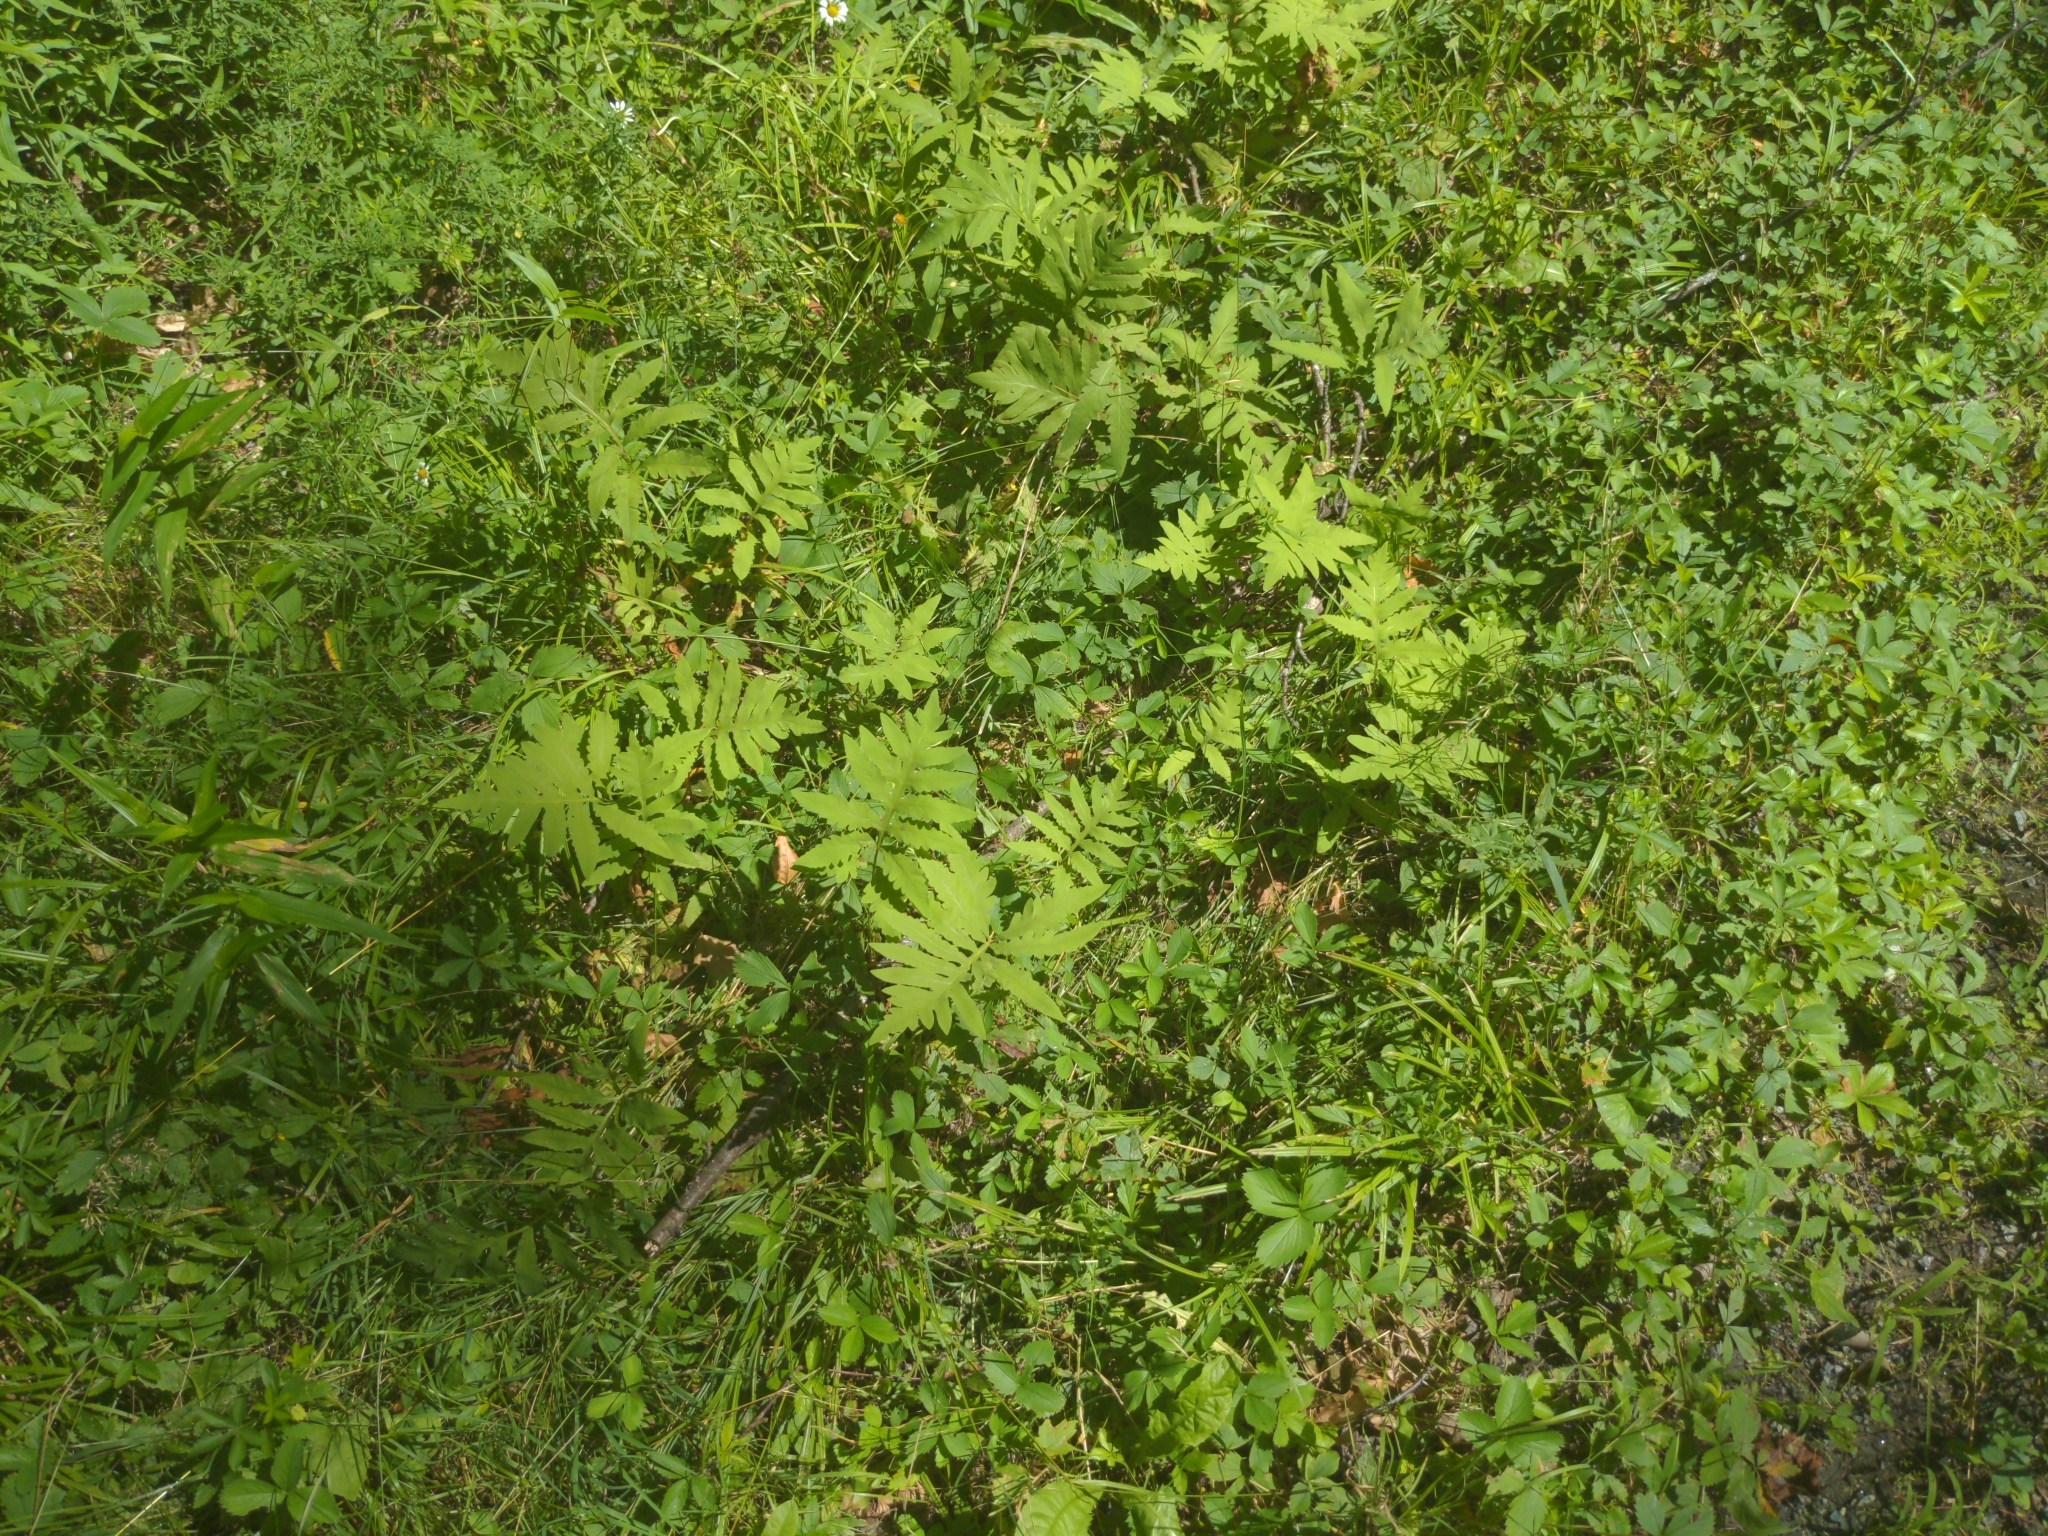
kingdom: Plantae
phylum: Tracheophyta
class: Polypodiopsida
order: Polypodiales
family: Onocleaceae
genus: Onoclea
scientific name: Onoclea sensibilis
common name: Sensitive fern
